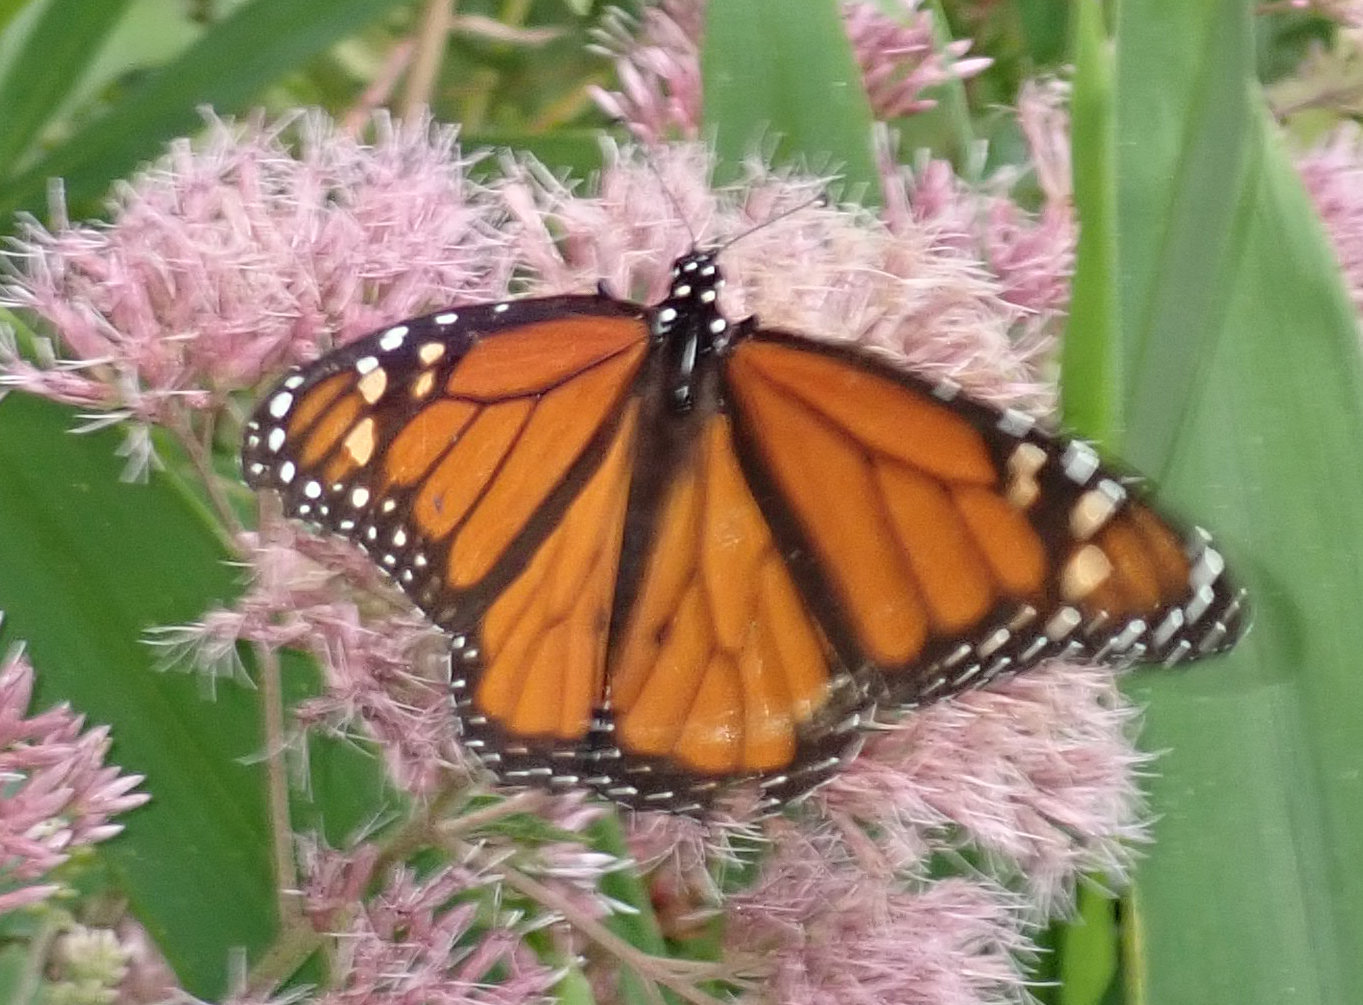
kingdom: Animalia
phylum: Arthropoda
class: Insecta
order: Lepidoptera
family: Nymphalidae
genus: Danaus
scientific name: Danaus plexippus
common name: Monarch
